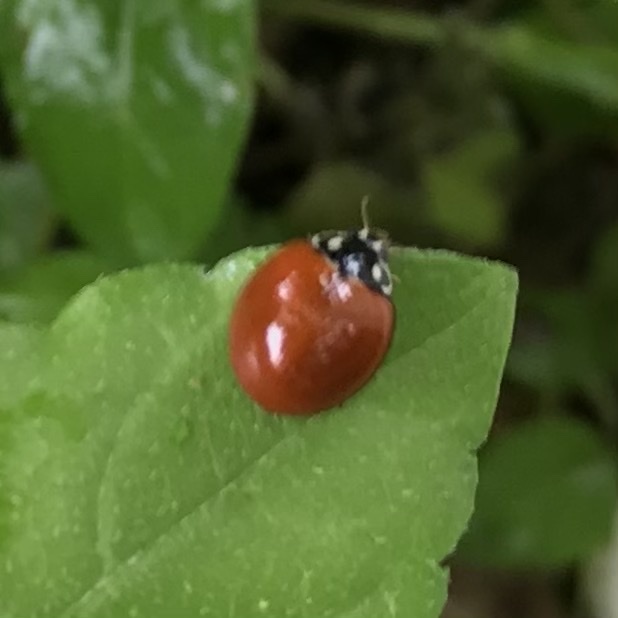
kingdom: Animalia
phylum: Arthropoda
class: Insecta
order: Coleoptera
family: Coccinellidae
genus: Cycloneda
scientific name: Cycloneda sanguinea
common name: Ladybird beetle
